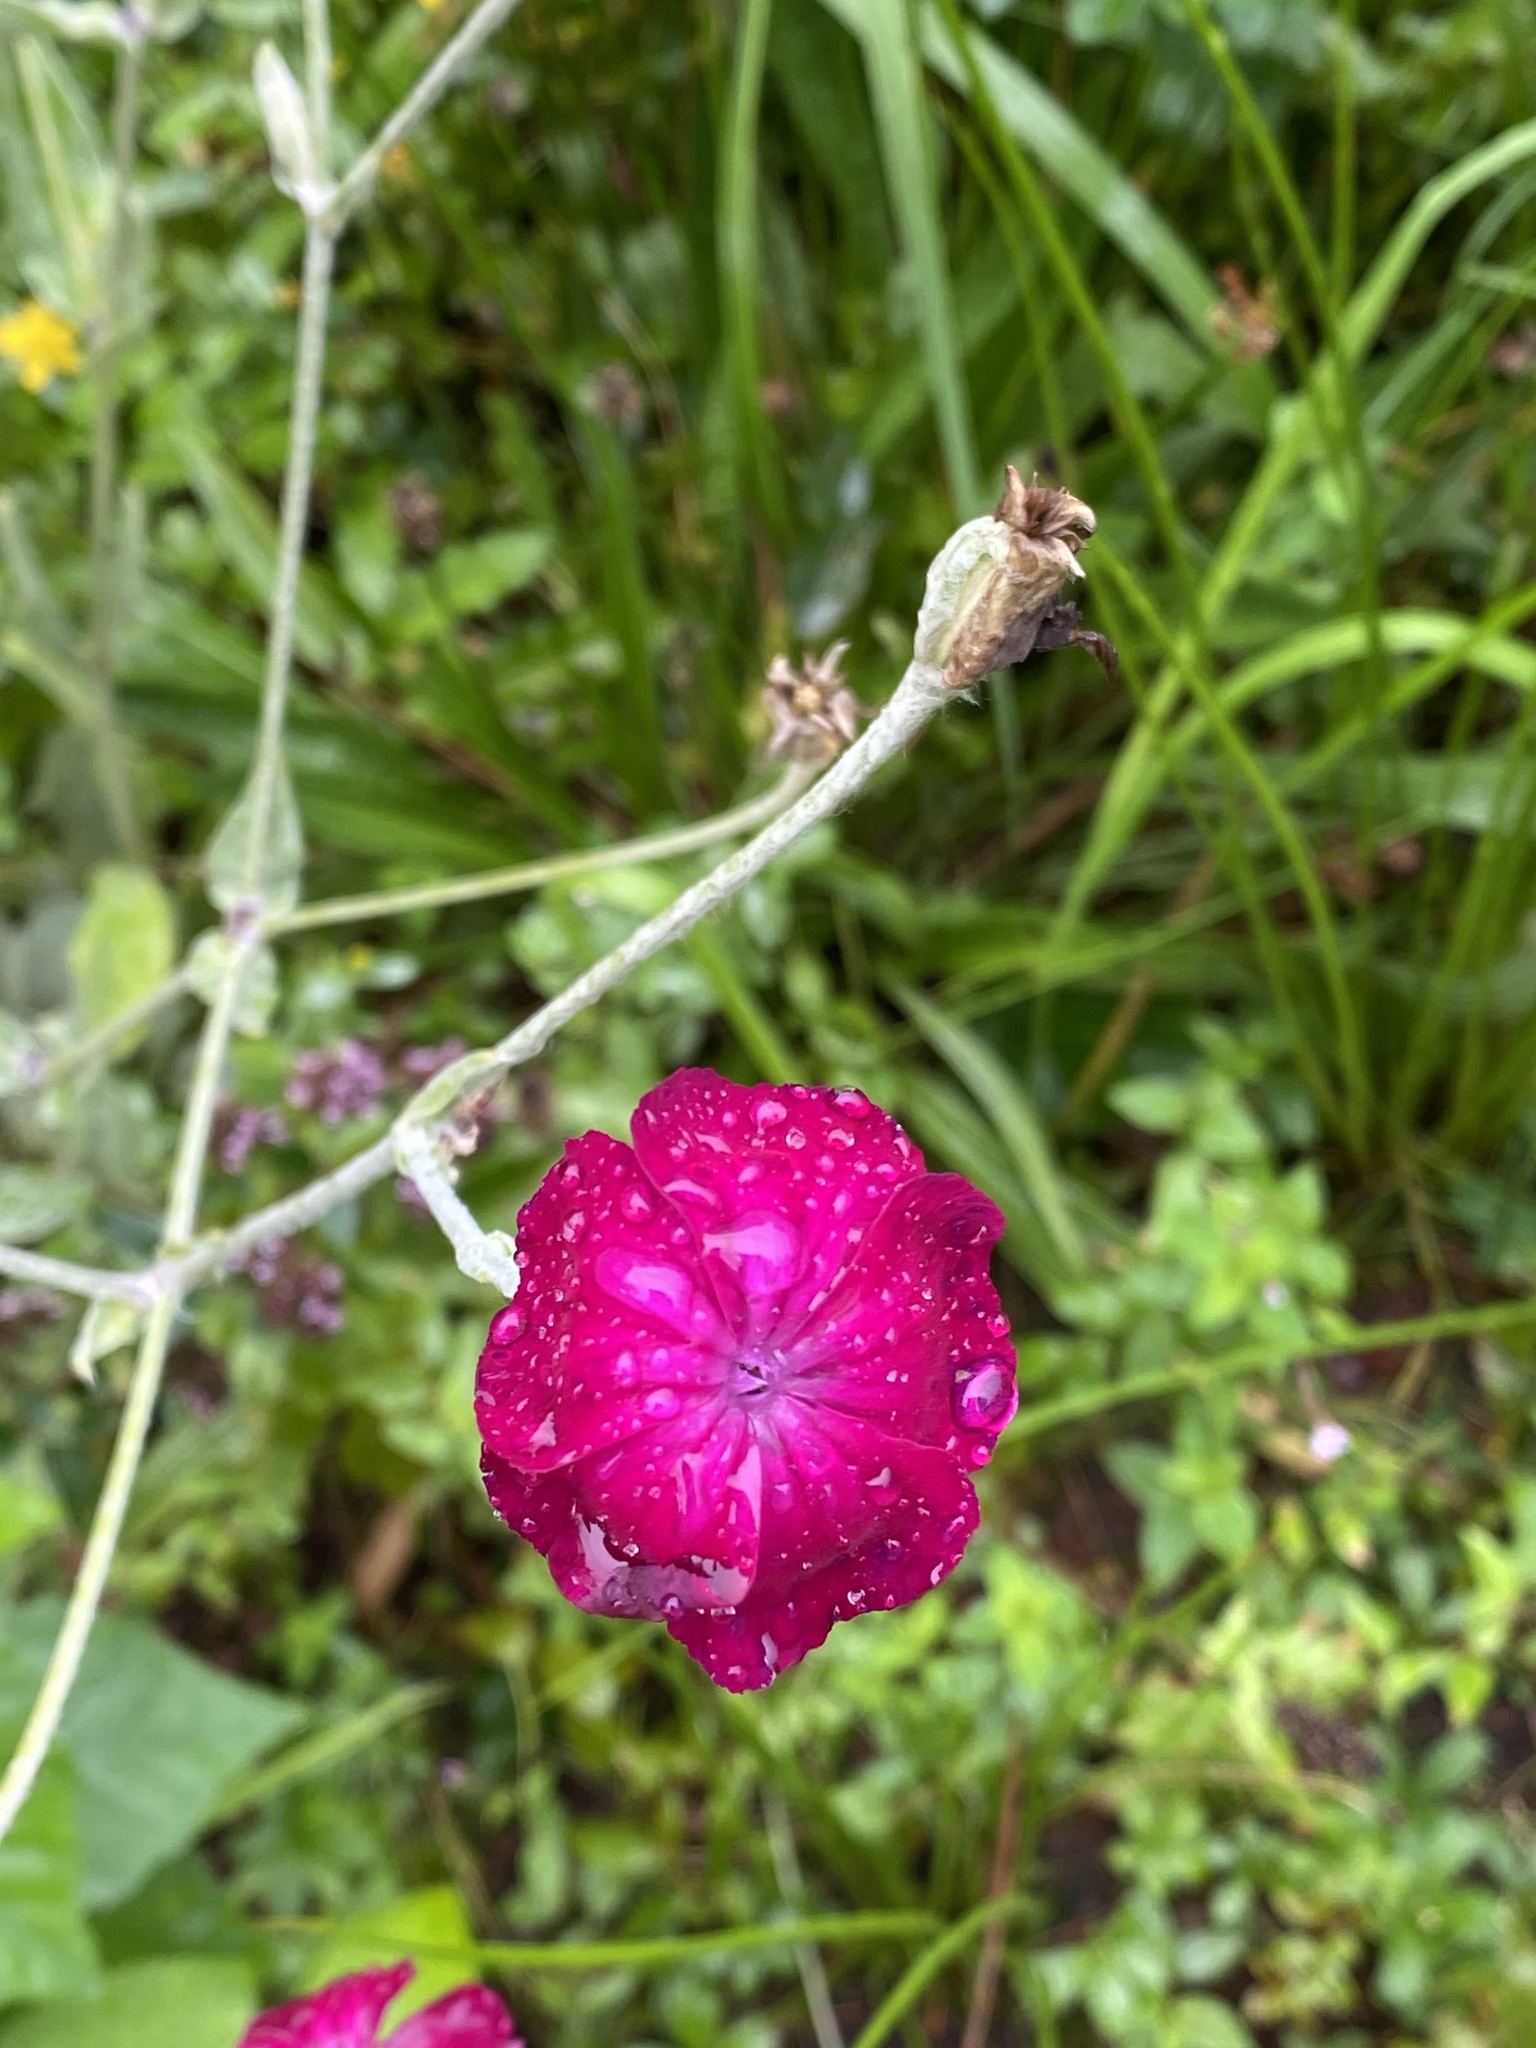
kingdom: Plantae
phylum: Tracheophyta
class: Magnoliopsida
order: Caryophyllales
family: Caryophyllaceae
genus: Silene
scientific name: Silene coronaria
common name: Rose campion
